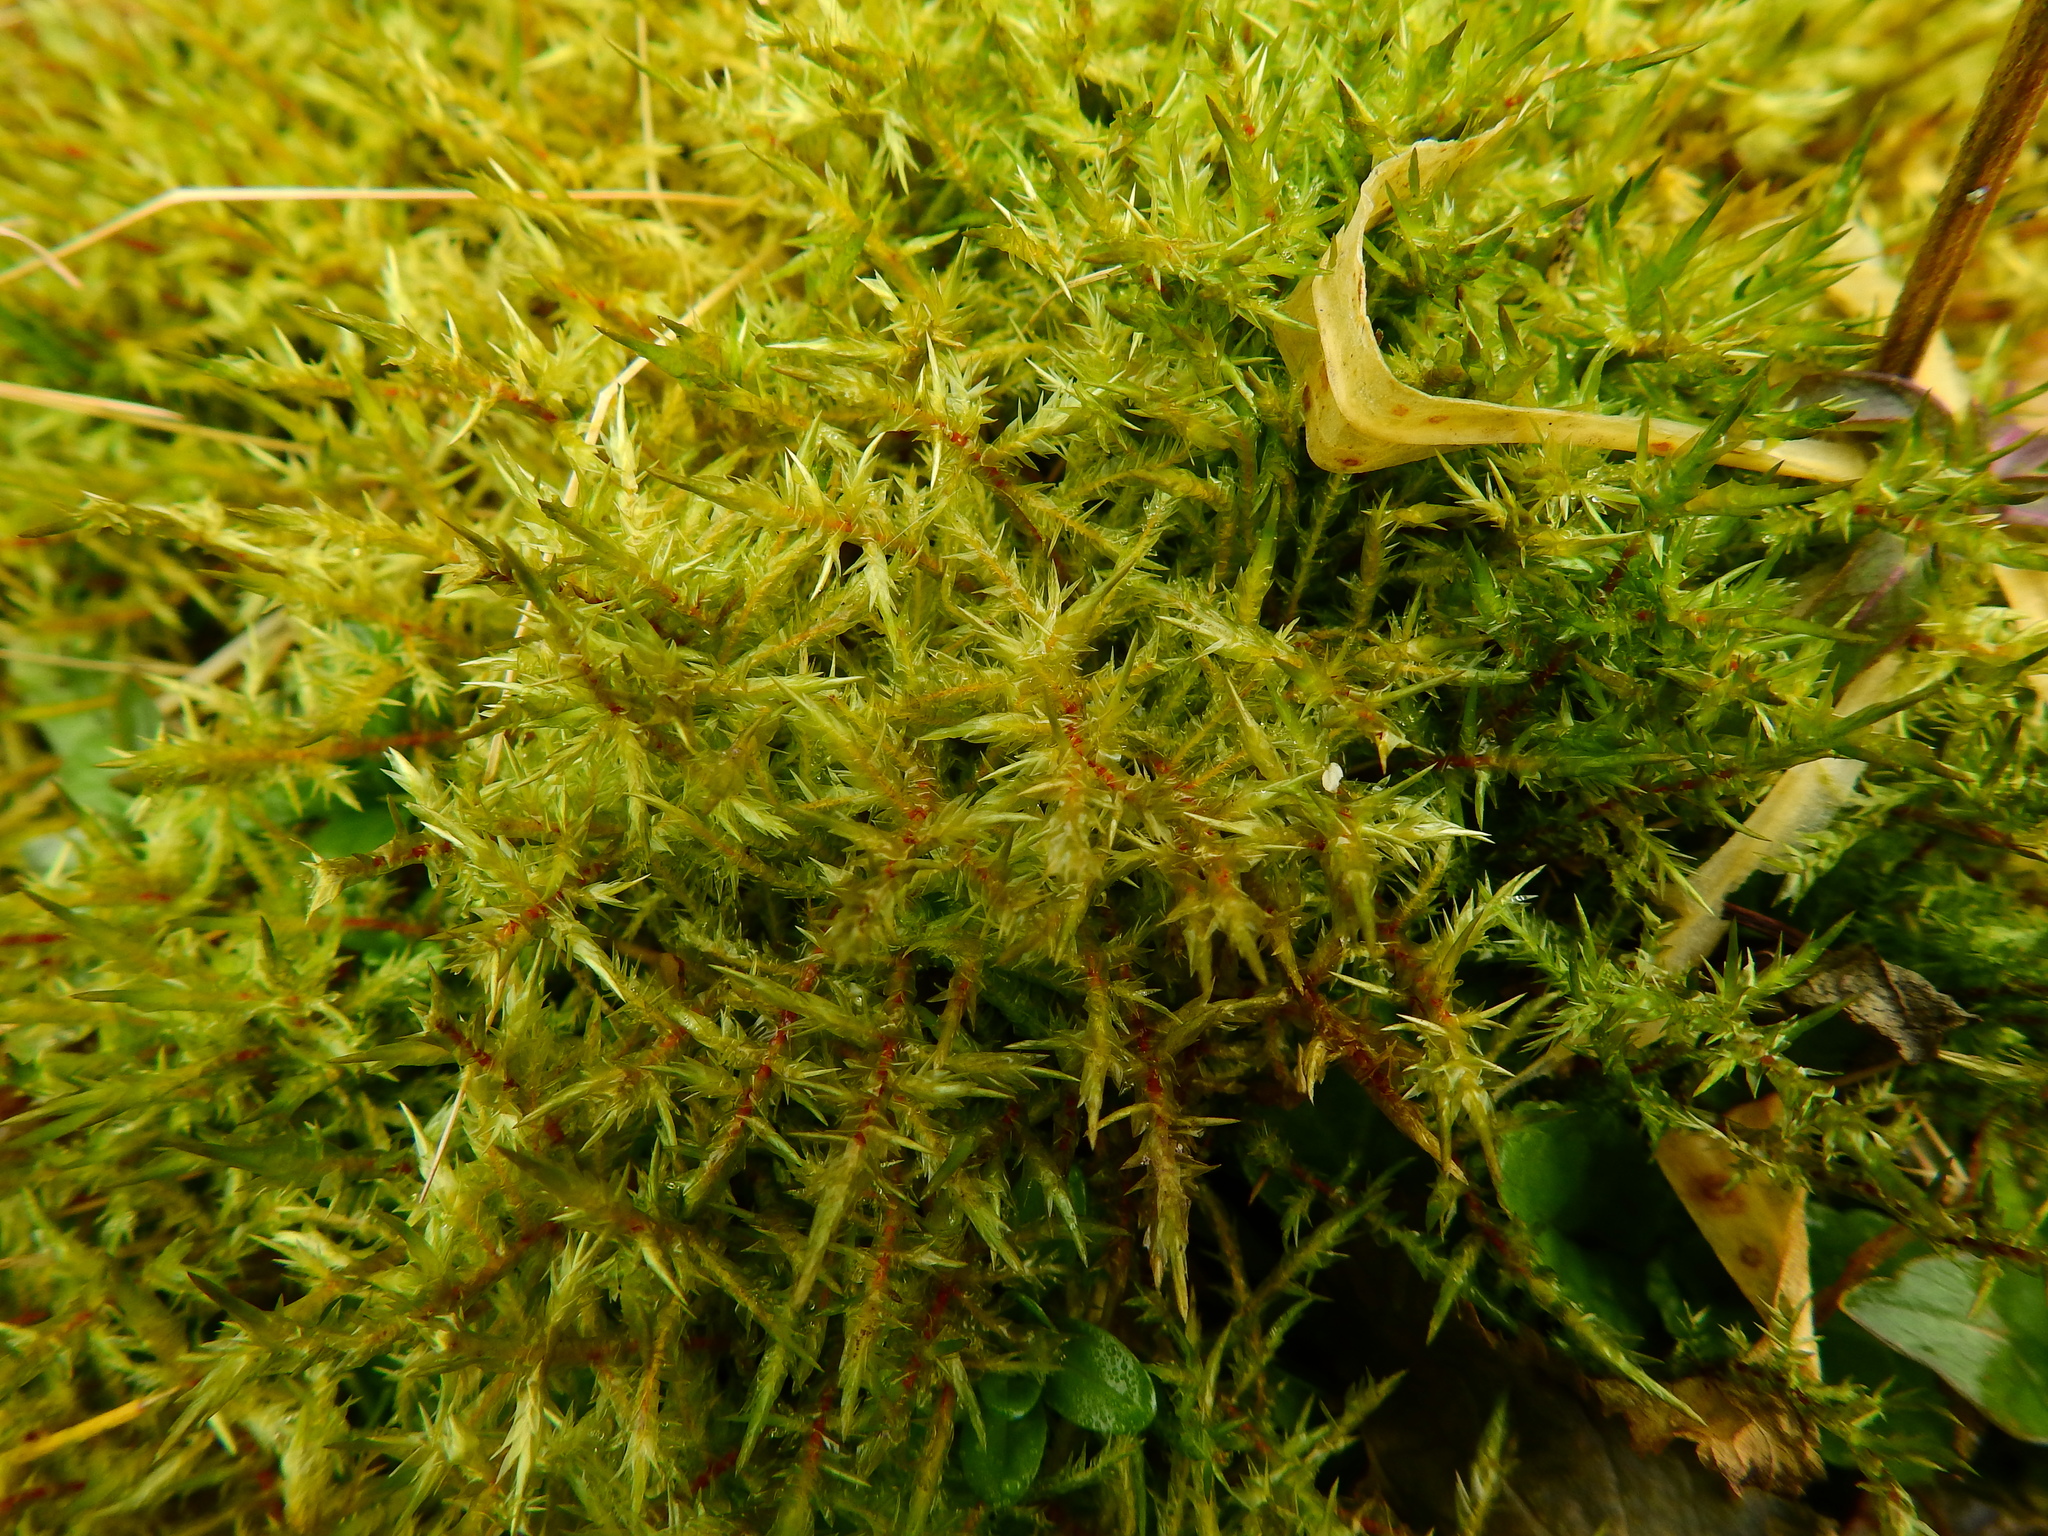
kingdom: Plantae
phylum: Bryophyta
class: Bryopsida
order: Hypnales
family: Pylaisiaceae
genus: Calliergonella
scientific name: Calliergonella cuspidata
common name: Common large wetland moss
